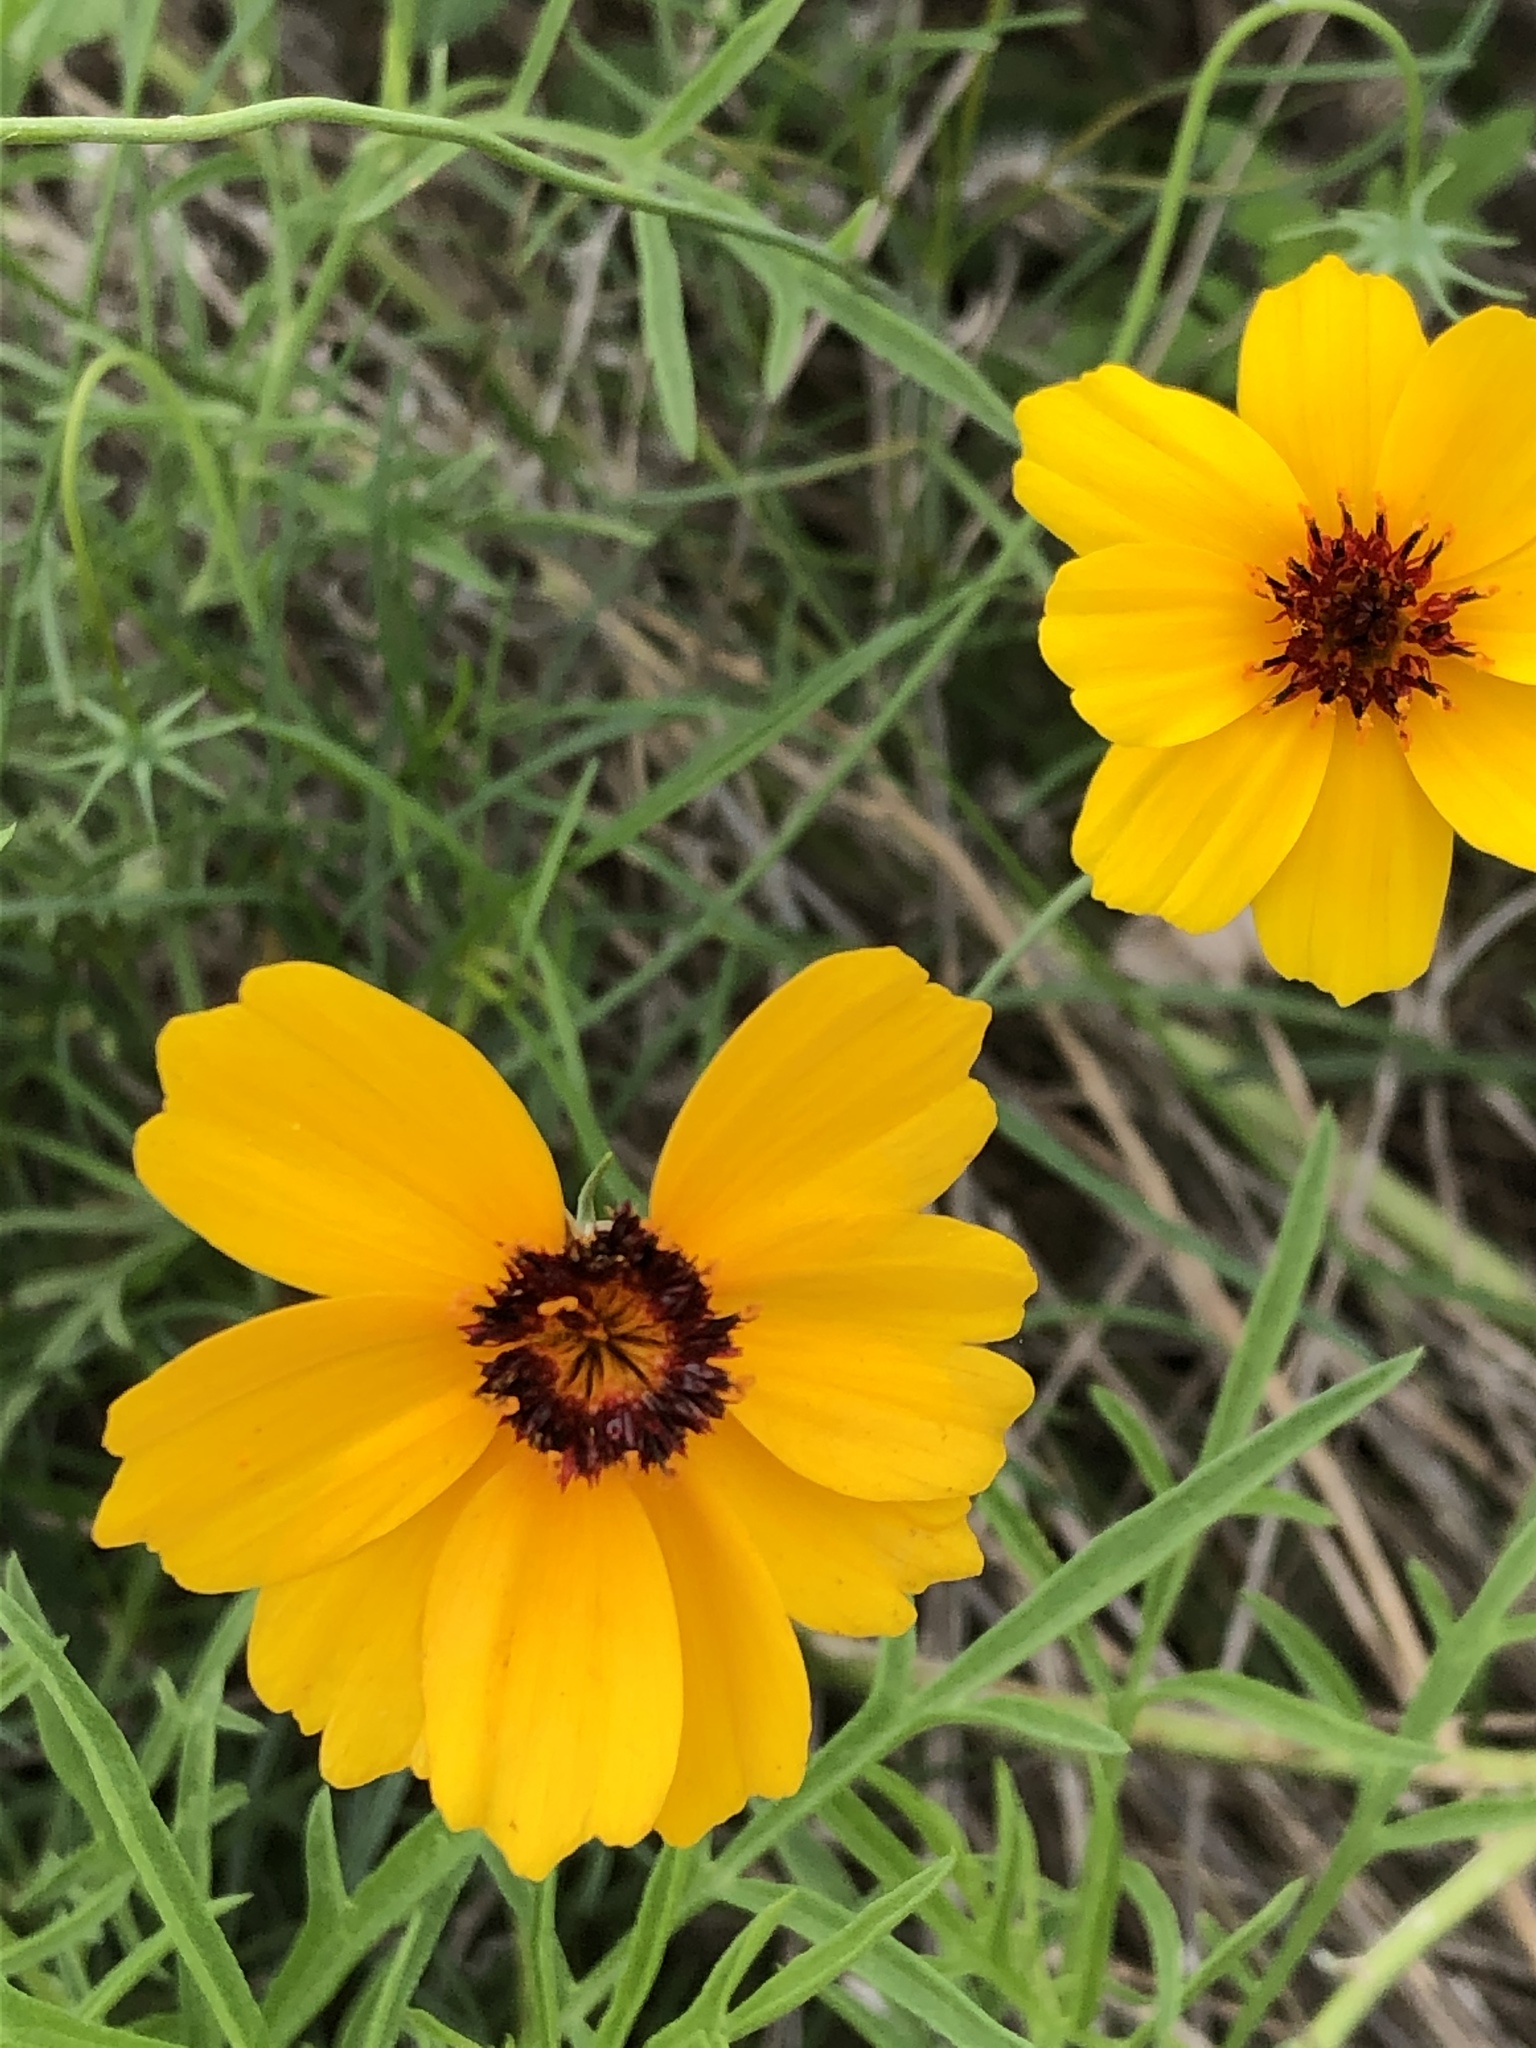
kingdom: Plantae
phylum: Tracheophyta
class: Magnoliopsida
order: Asterales
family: Asteraceae
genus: Thelesperma
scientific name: Thelesperma filifolium
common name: Stiff greenthread
